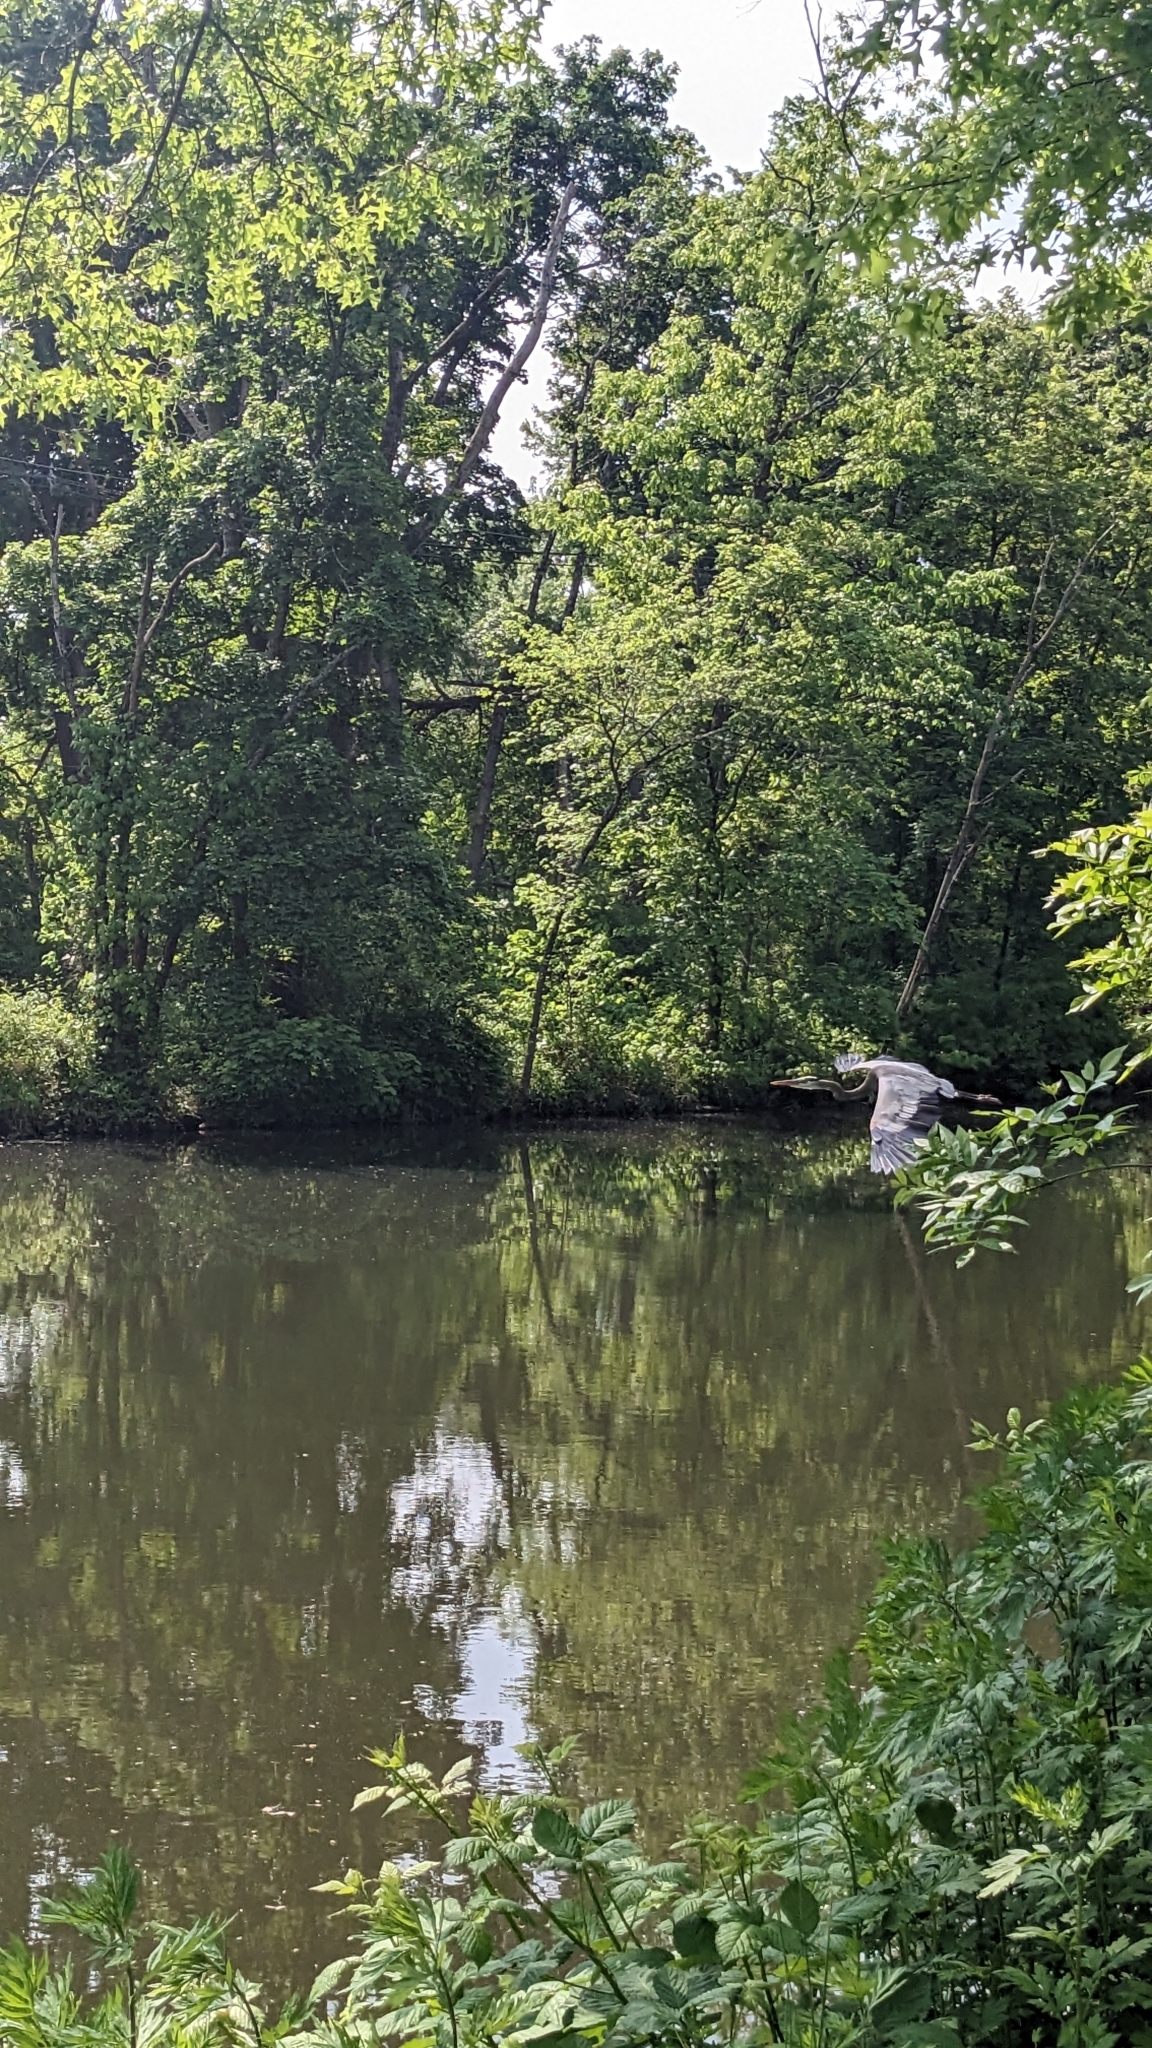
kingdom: Animalia
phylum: Chordata
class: Aves
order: Pelecaniformes
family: Ardeidae
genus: Ardea
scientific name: Ardea herodias
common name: Great blue heron
